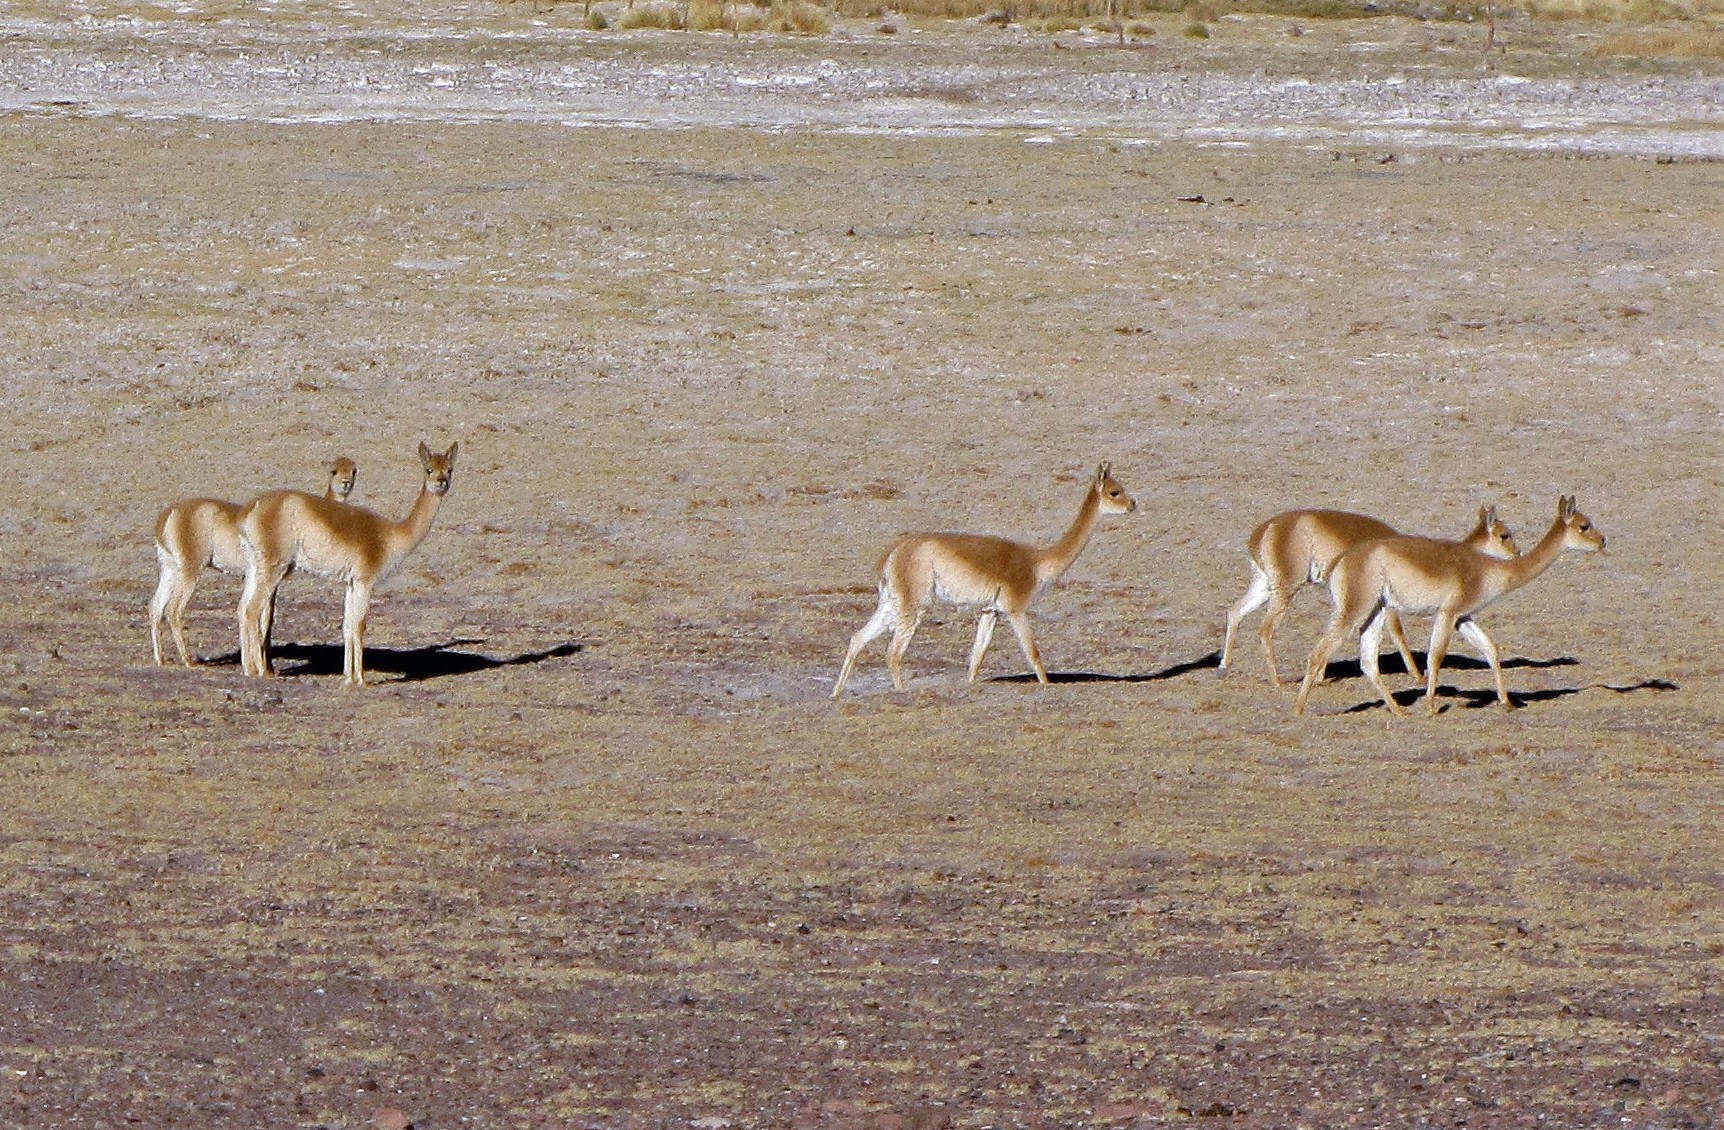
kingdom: Animalia
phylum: Chordata
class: Mammalia
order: Artiodactyla
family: Camelidae
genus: Vicugna
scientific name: Vicugna vicugna
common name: Vicugna
